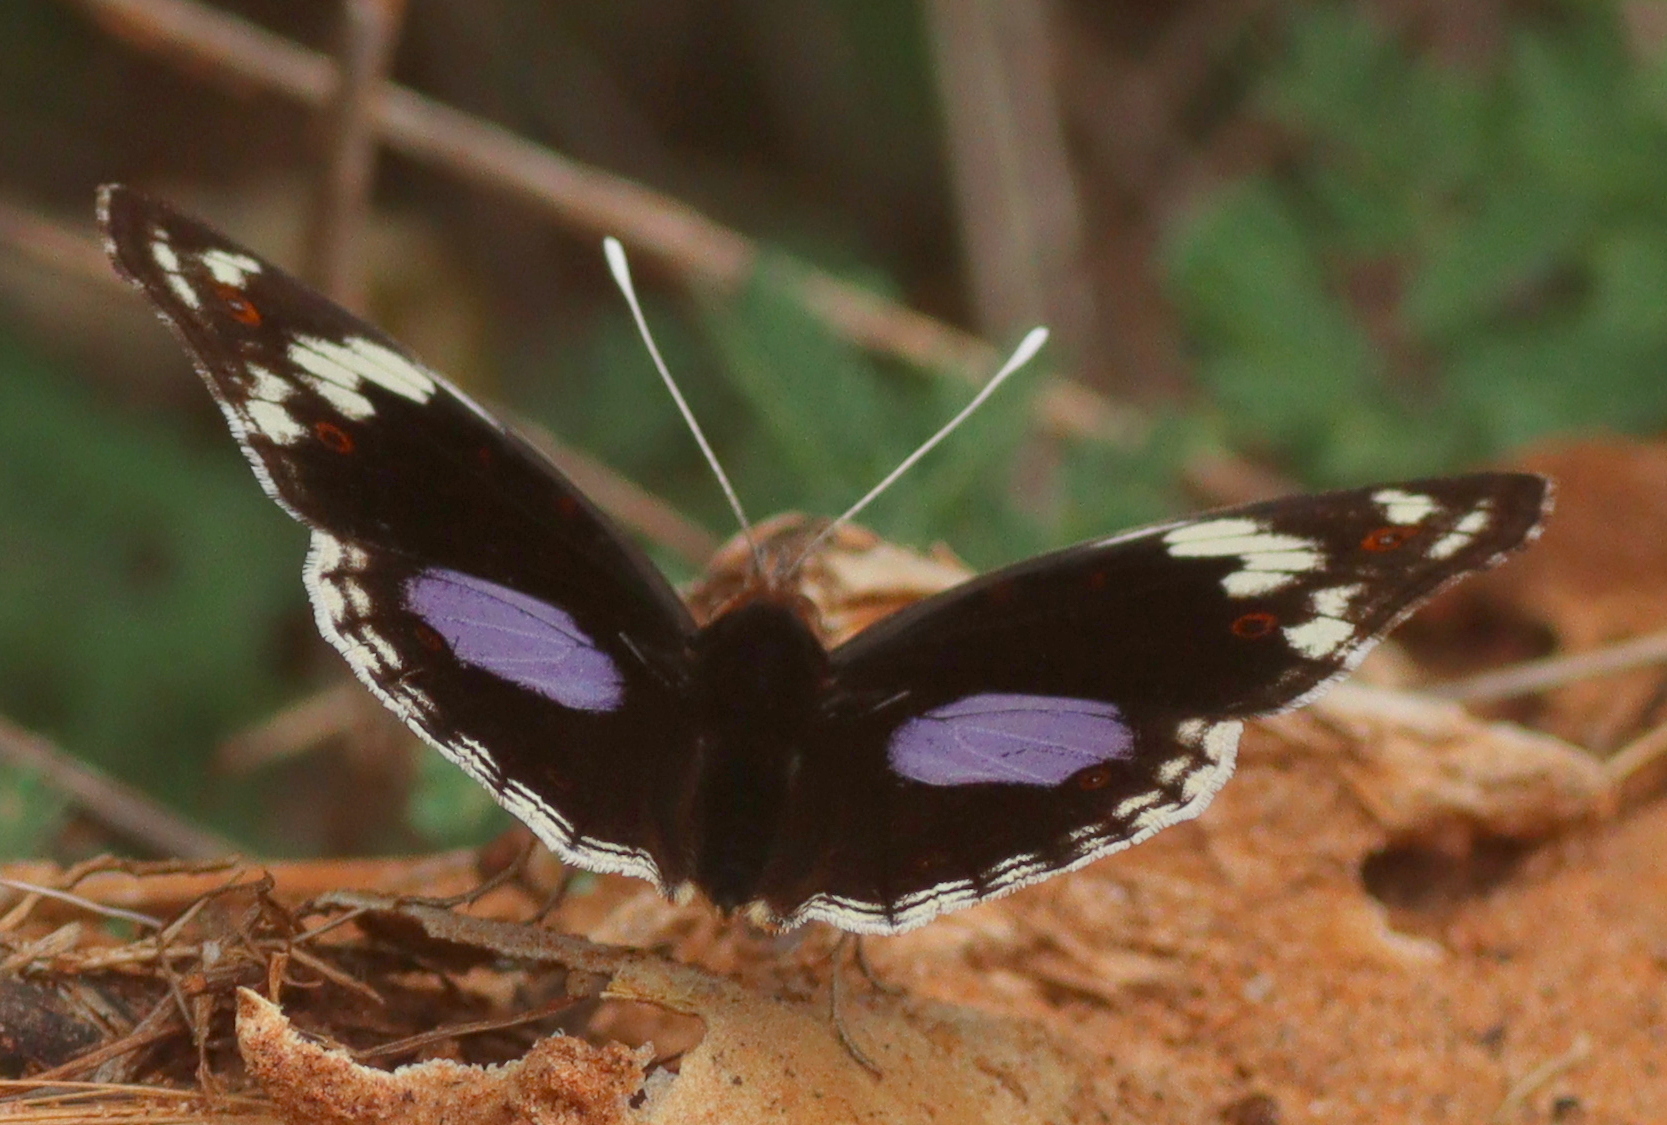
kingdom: Animalia
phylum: Arthropoda
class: Insecta
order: Lepidoptera
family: Nymphalidae
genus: Junonia
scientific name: Junonia oenone
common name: Dark blue pansy
